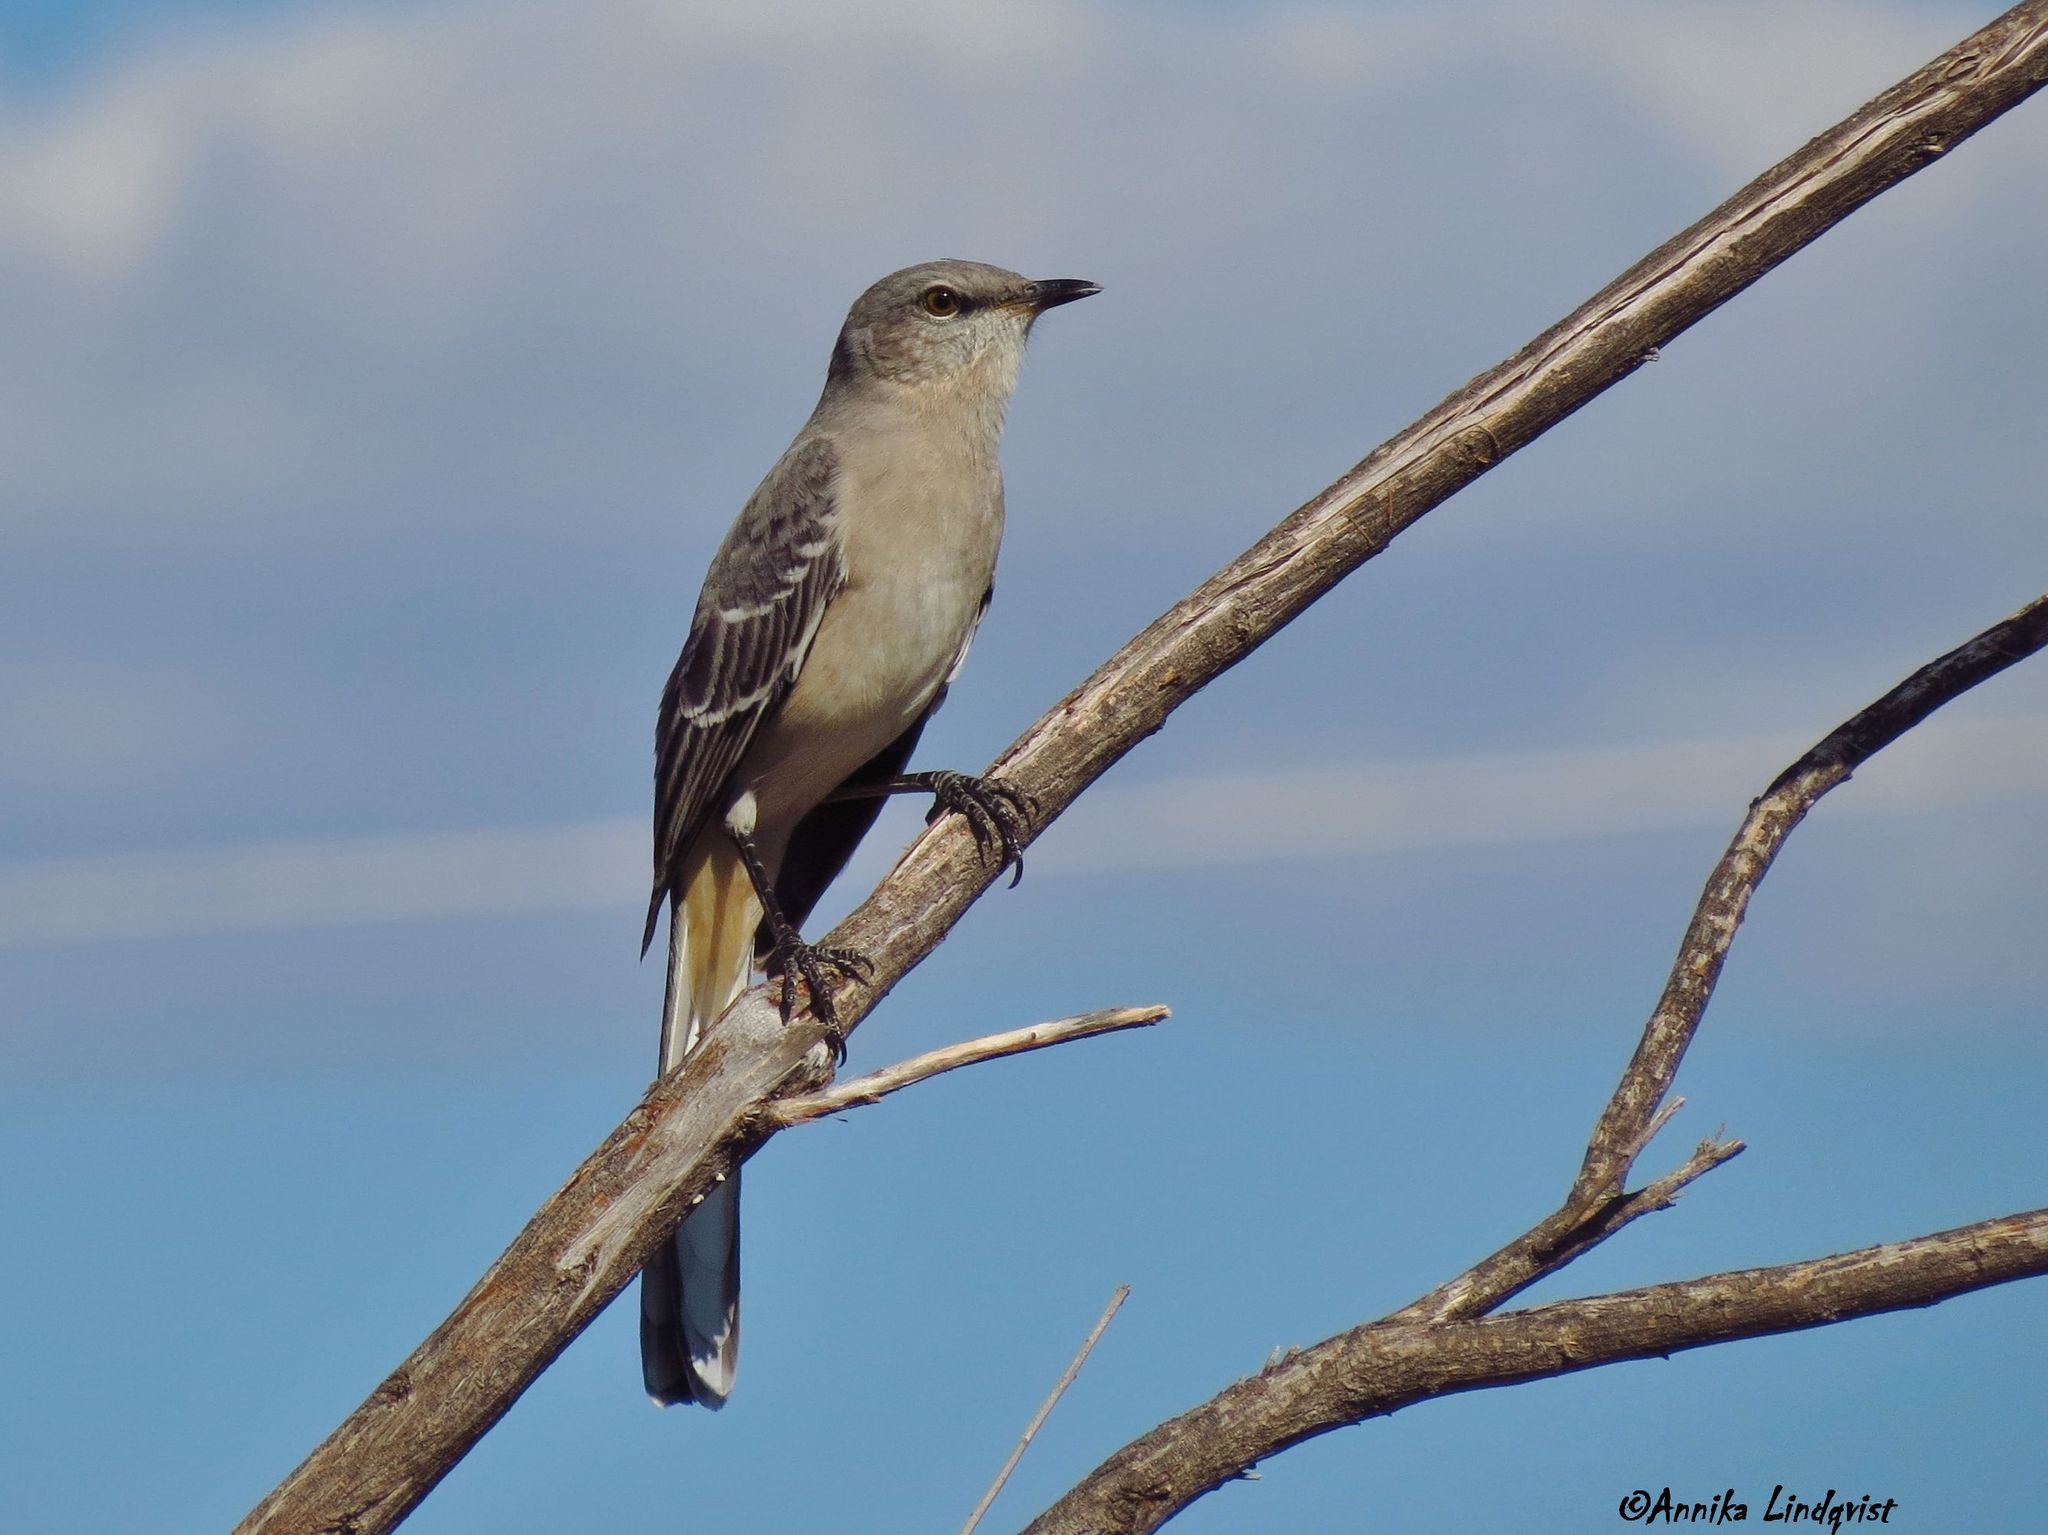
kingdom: Animalia
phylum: Chordata
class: Aves
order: Passeriformes
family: Mimidae
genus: Mimus
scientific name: Mimus polyglottos
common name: Northern mockingbird
